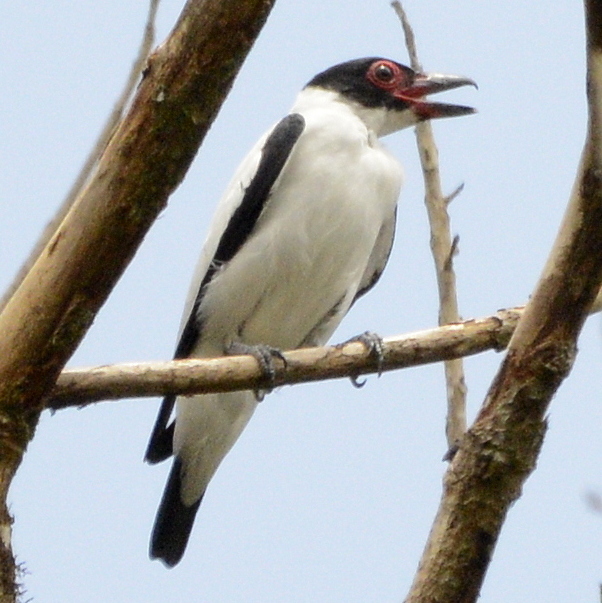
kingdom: Animalia
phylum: Chordata
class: Aves
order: Passeriformes
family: Cotingidae
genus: Tityra
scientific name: Tityra cayana
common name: Black-tailed tityra
